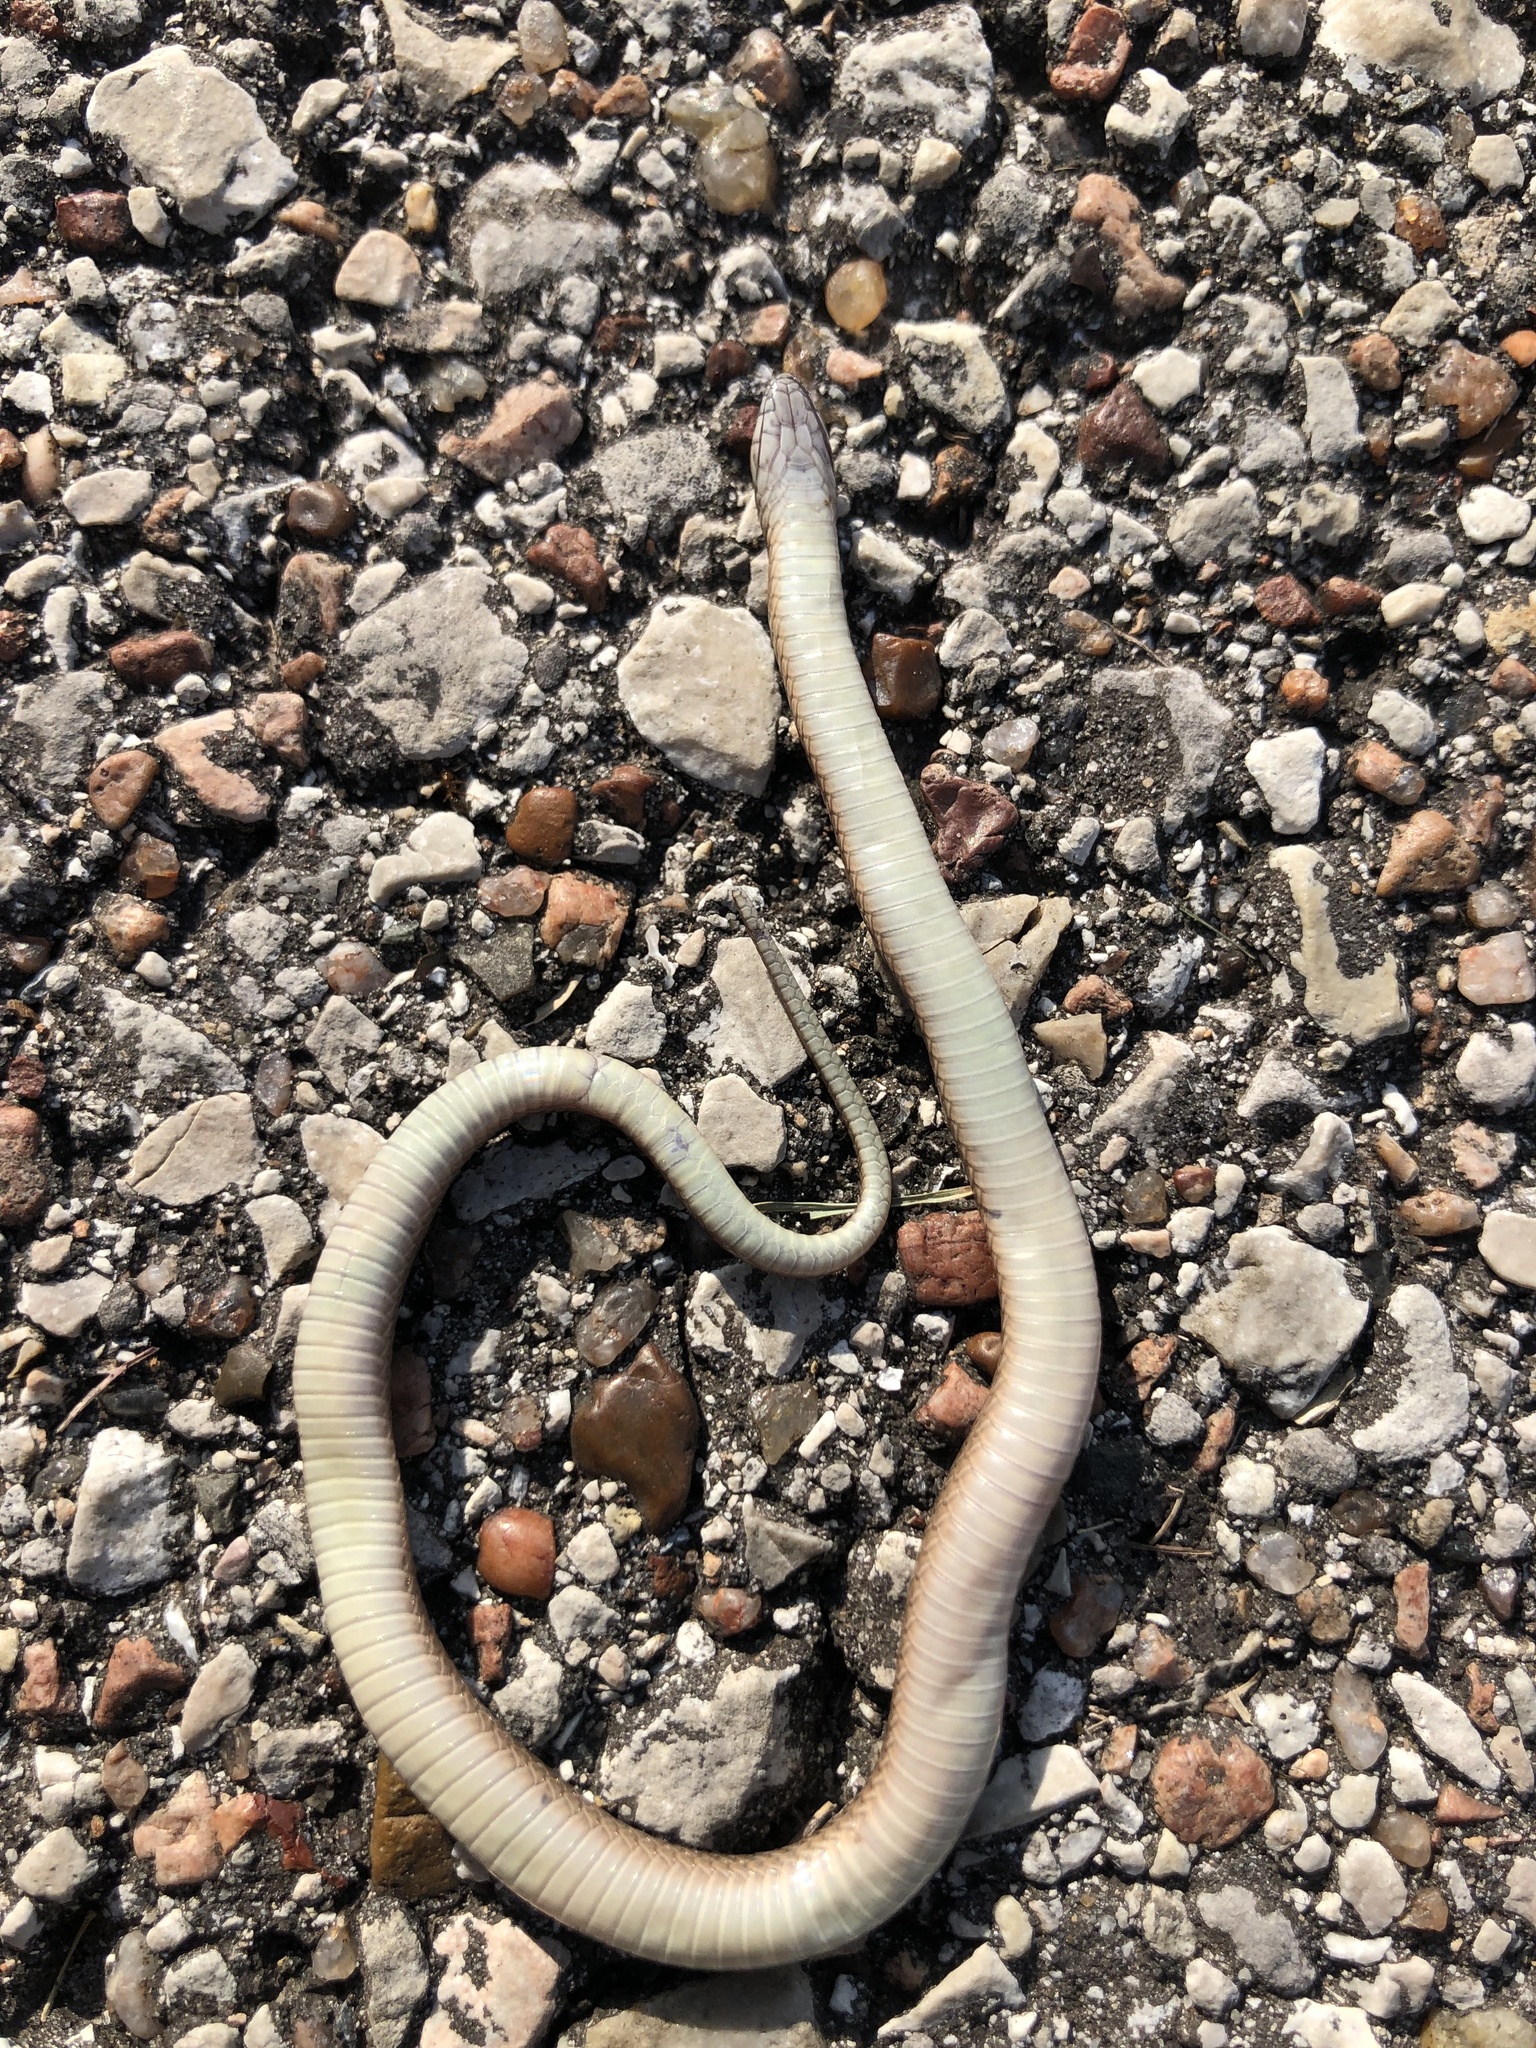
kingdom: Animalia
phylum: Chordata
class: Squamata
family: Colubridae
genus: Haldea
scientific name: Haldea striatula
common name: Rough earth snake
